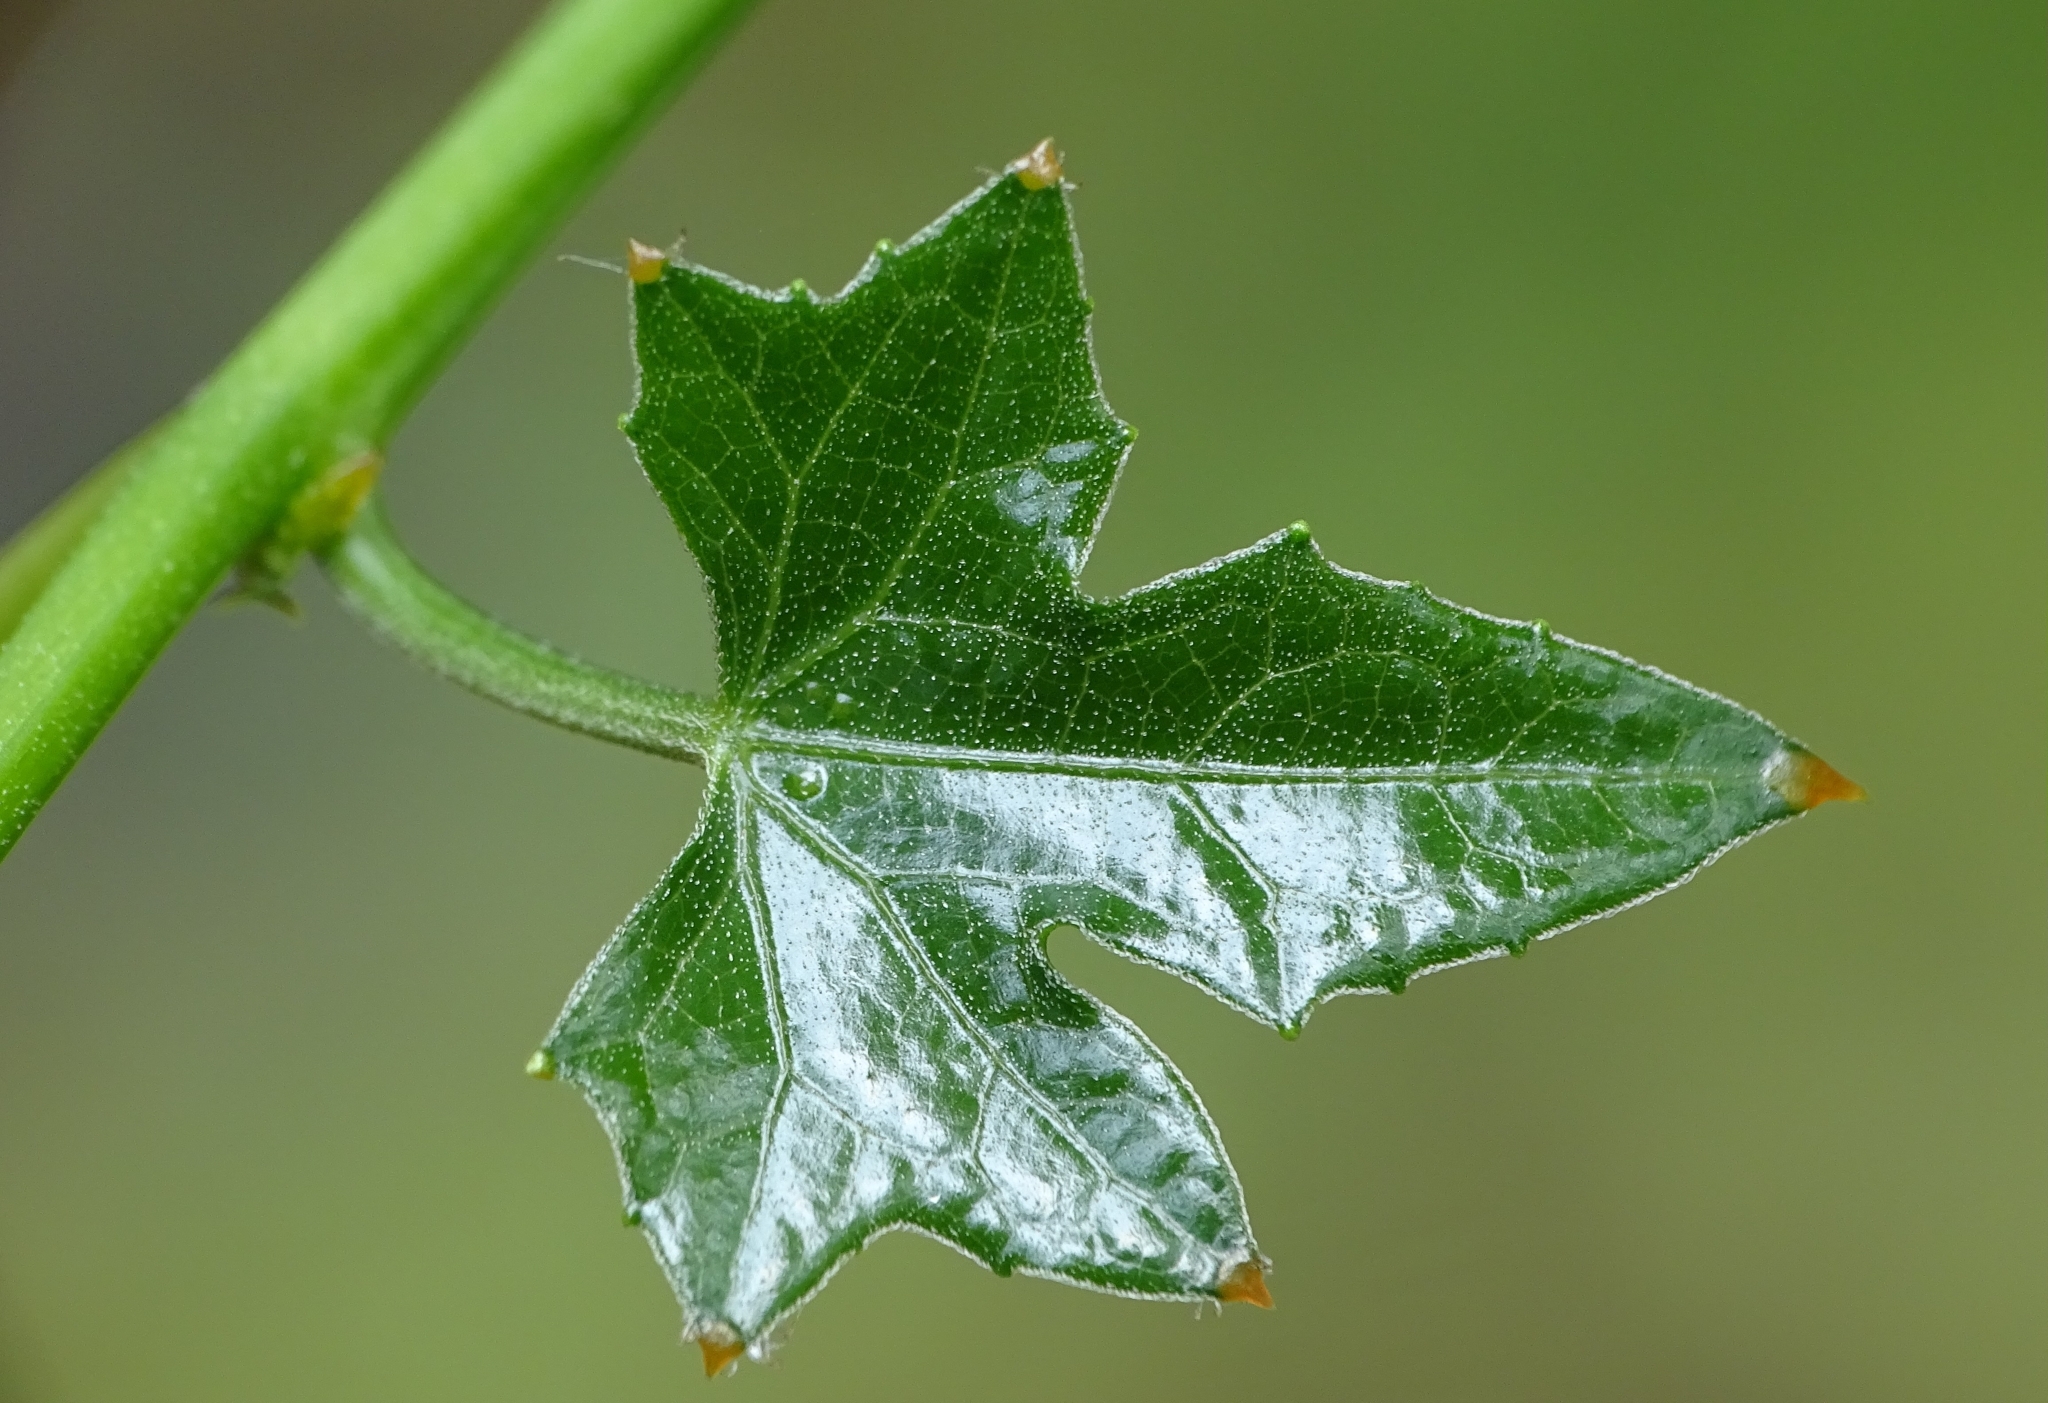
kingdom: Plantae
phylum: Tracheophyta
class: Magnoliopsida
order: Cucurbitales
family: Cucurbitaceae
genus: Coccinia
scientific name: Coccinia grandis
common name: Ivy gourd
